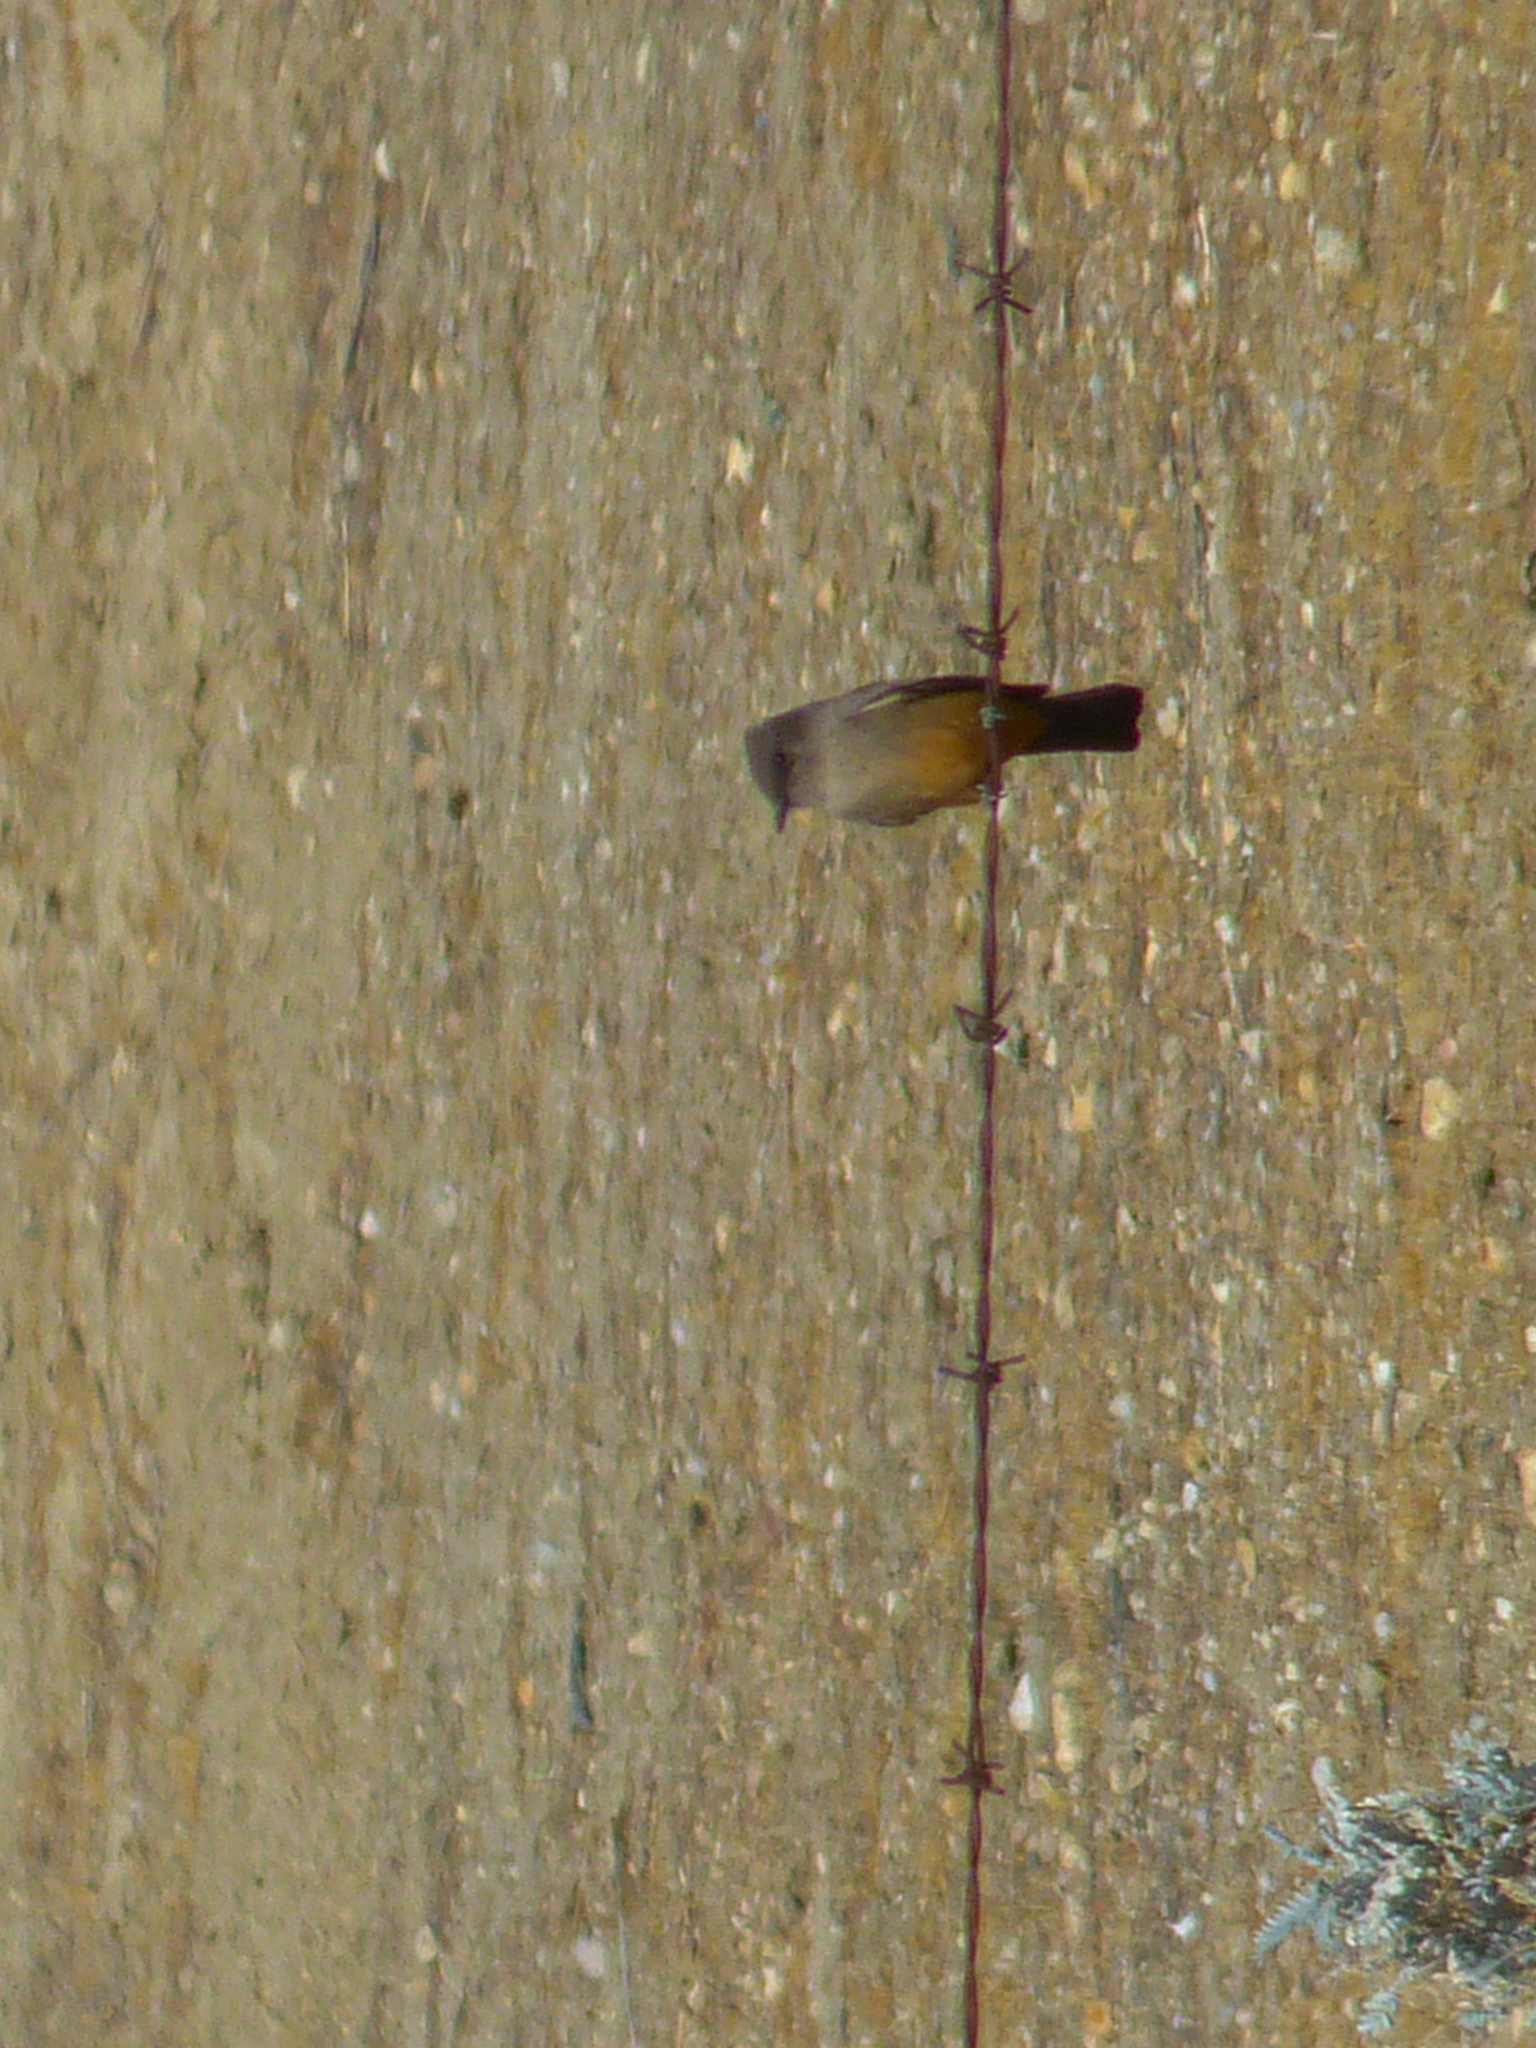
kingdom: Animalia
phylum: Chordata
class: Aves
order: Passeriformes
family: Tyrannidae
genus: Sayornis
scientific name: Sayornis saya
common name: Say's phoebe
